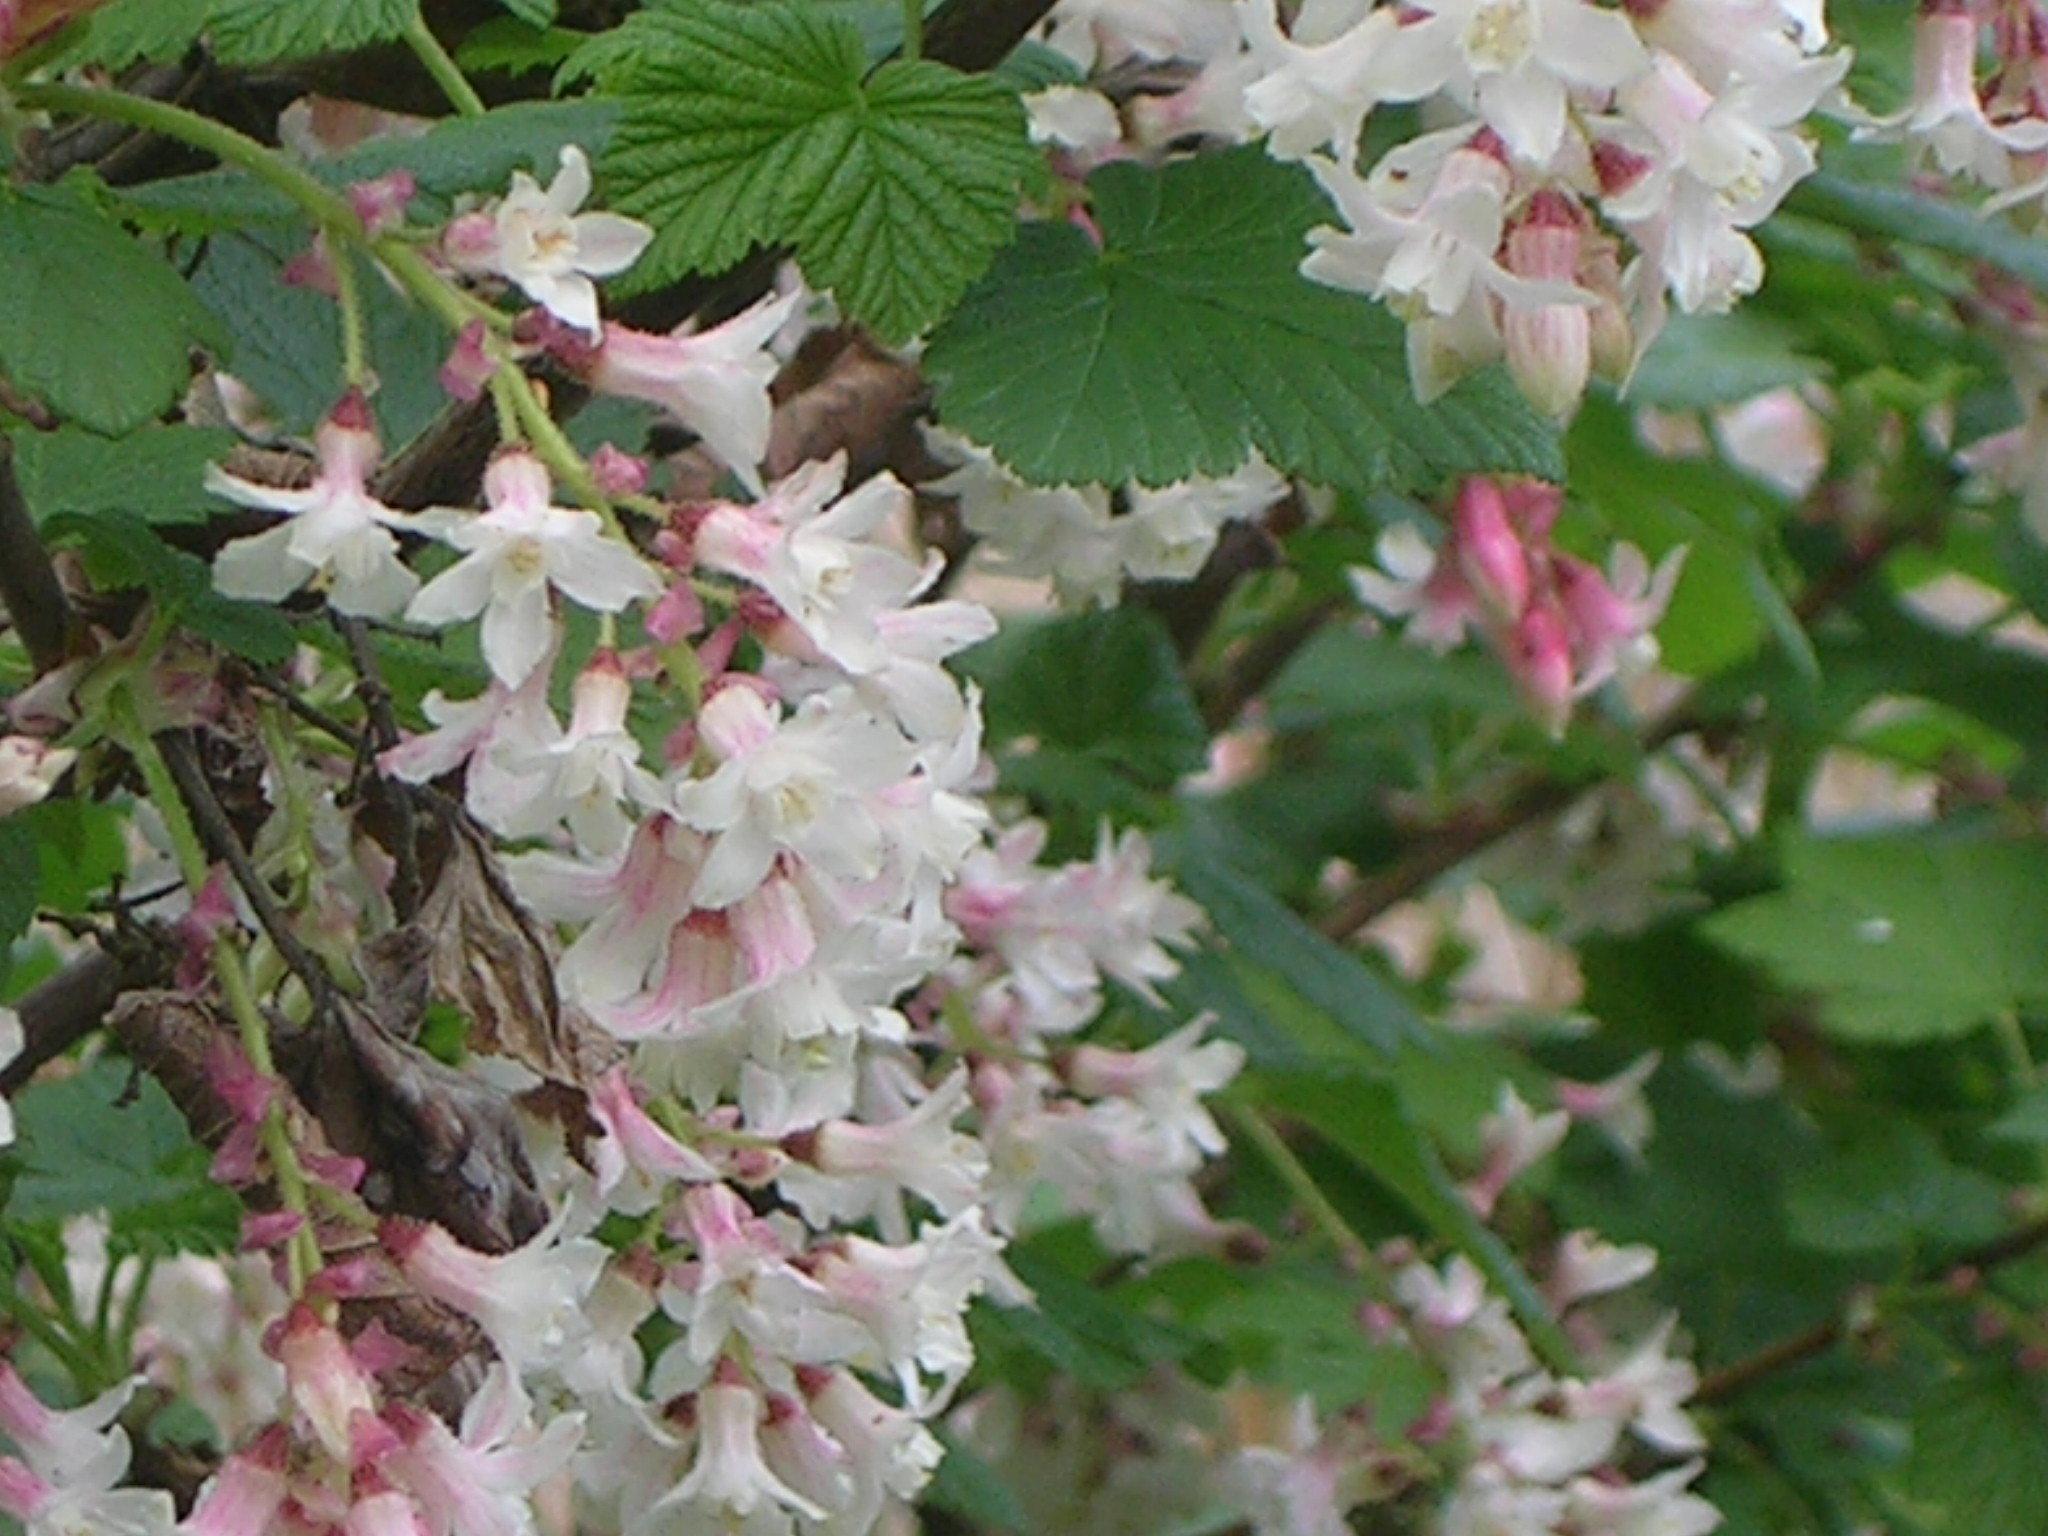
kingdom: Plantae
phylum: Tracheophyta
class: Magnoliopsida
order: Saxifragales
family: Grossulariaceae
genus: Ribes
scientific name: Ribes sanguineum
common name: Flowering currant
